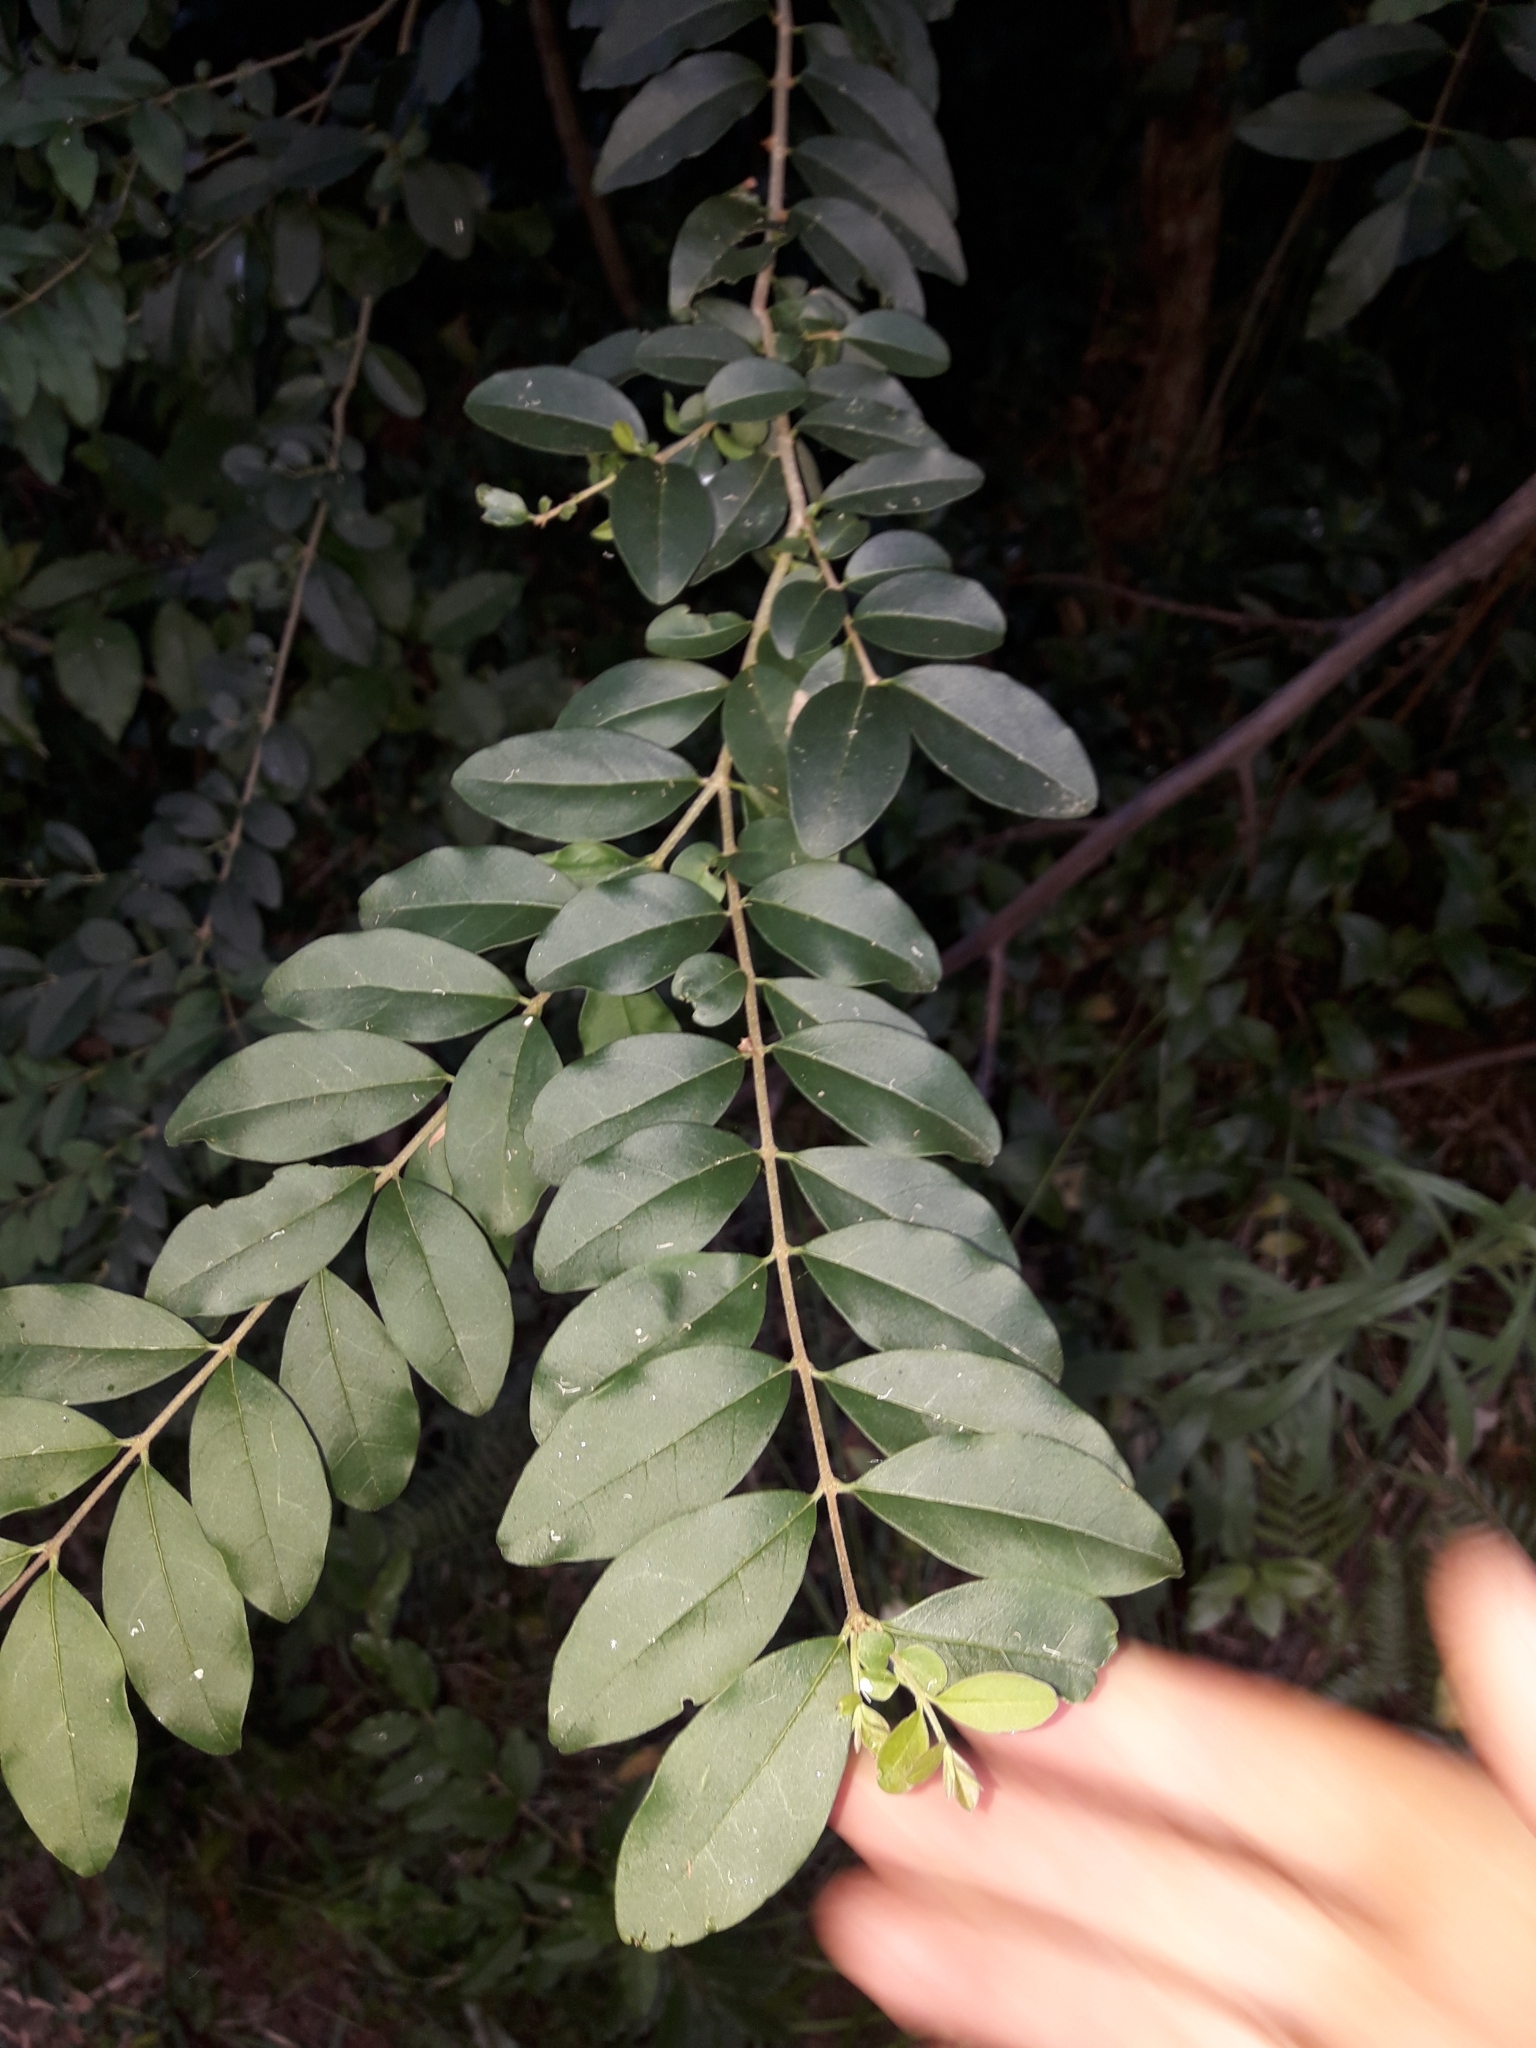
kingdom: Plantae
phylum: Tracheophyta
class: Magnoliopsida
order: Lamiales
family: Oleaceae
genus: Ligustrum
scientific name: Ligustrum sinense
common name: Chinese privet
